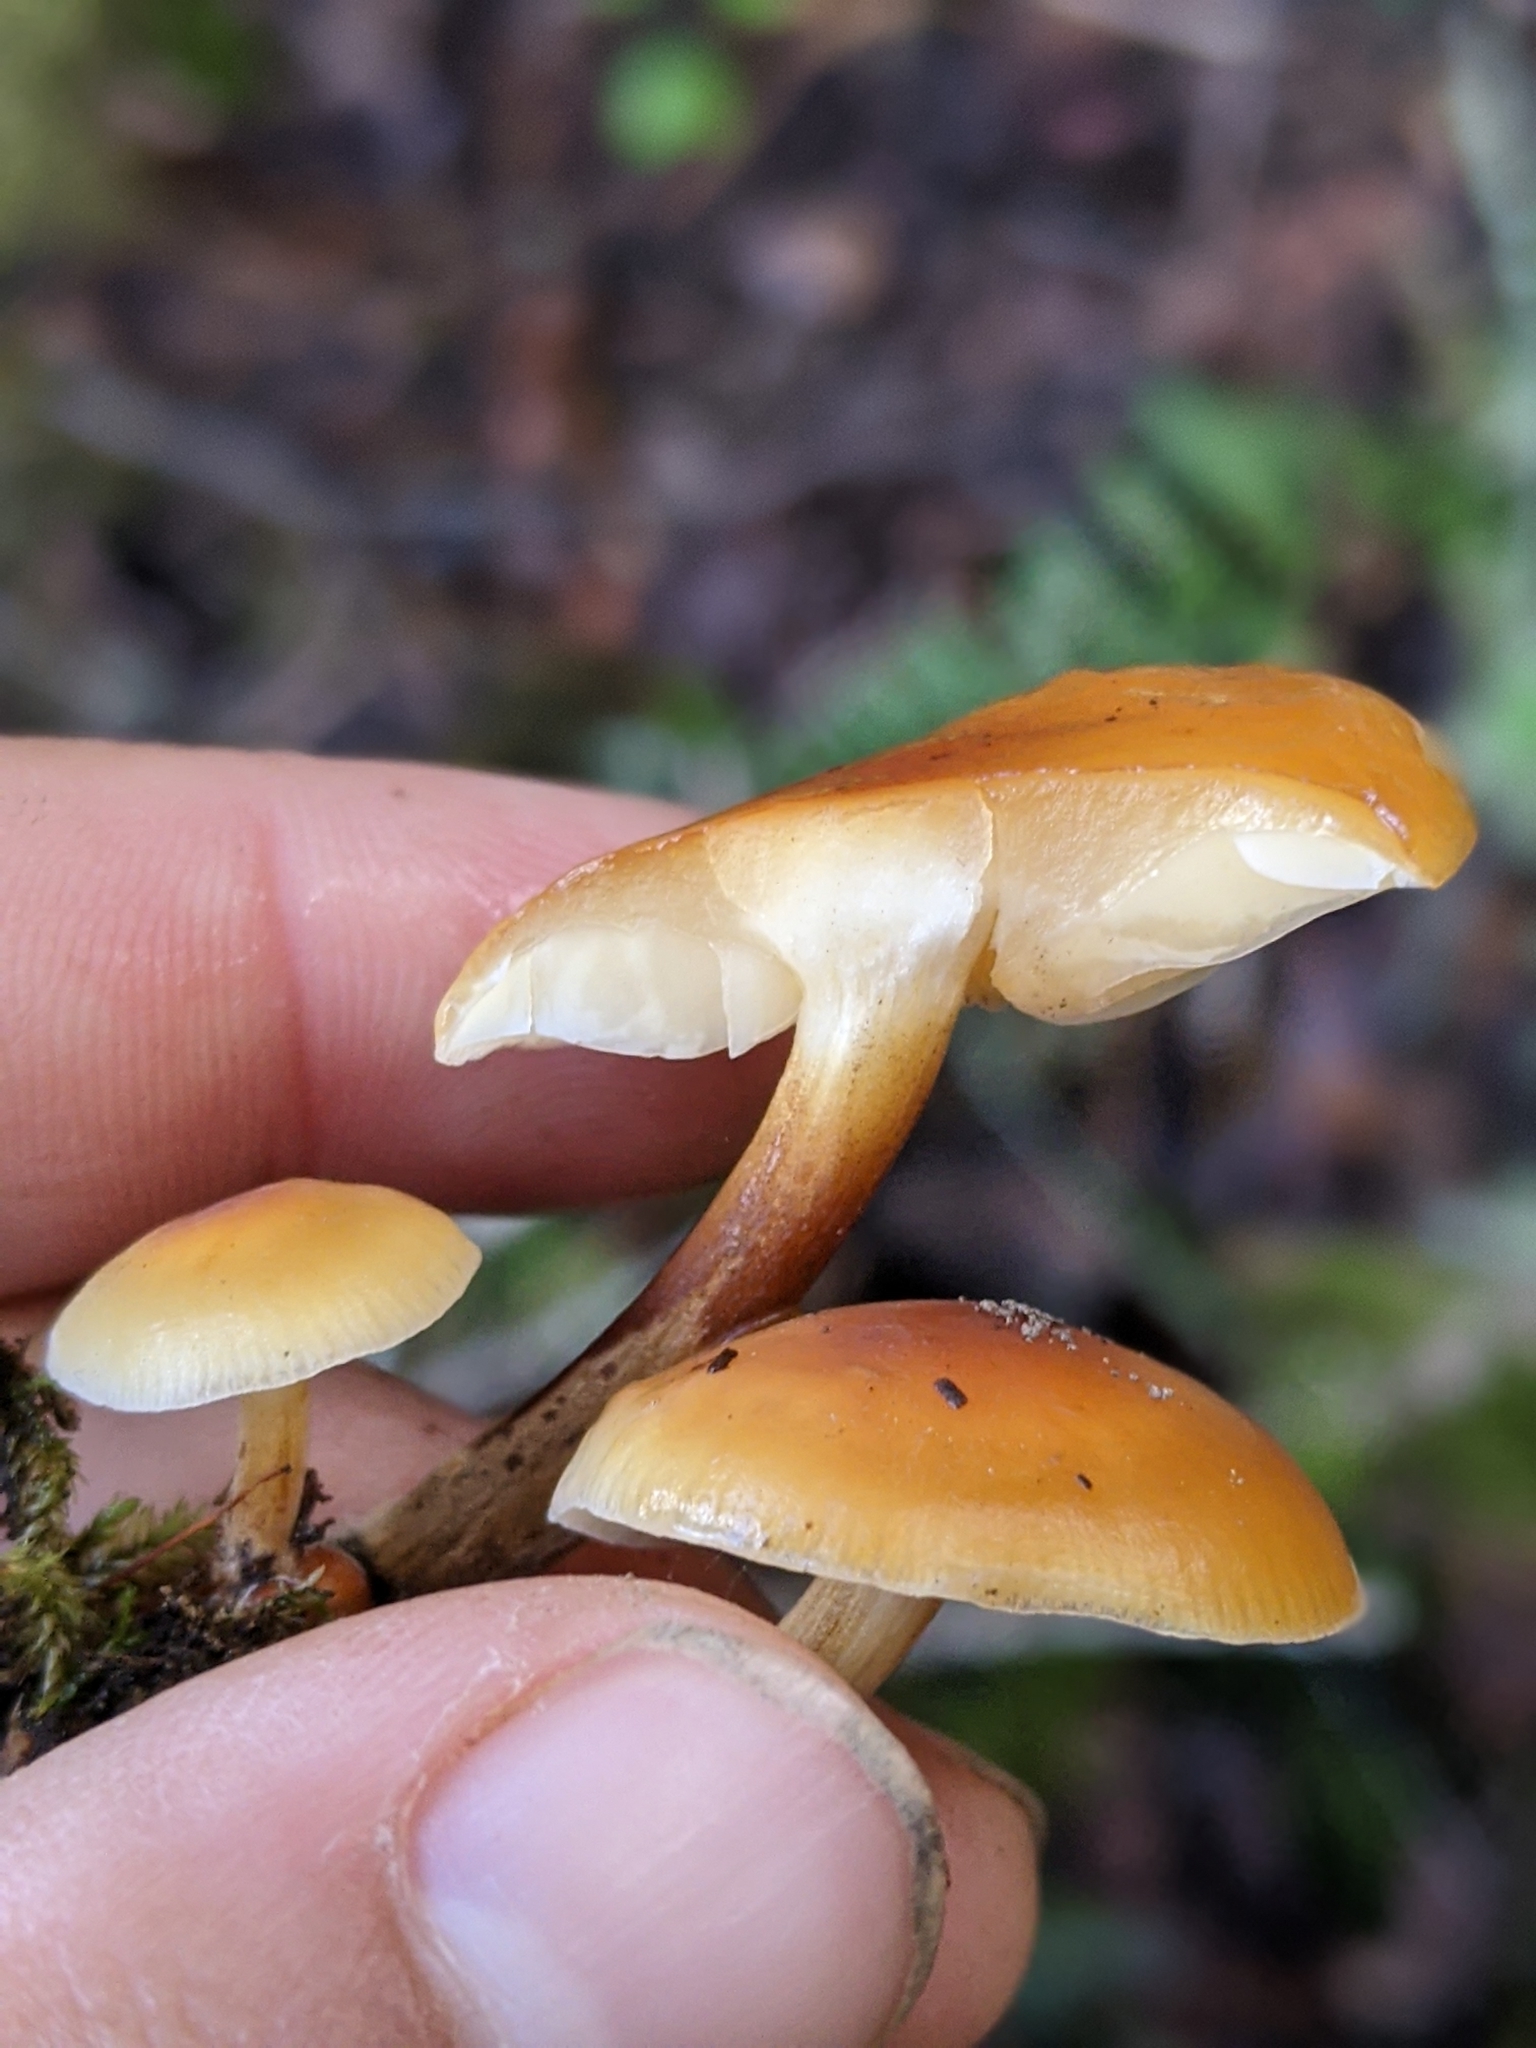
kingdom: Fungi
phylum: Basidiomycota
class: Agaricomycetes
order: Agaricales
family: Physalacriaceae
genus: Flammulina
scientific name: Flammulina velutipes
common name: Velvet shank
